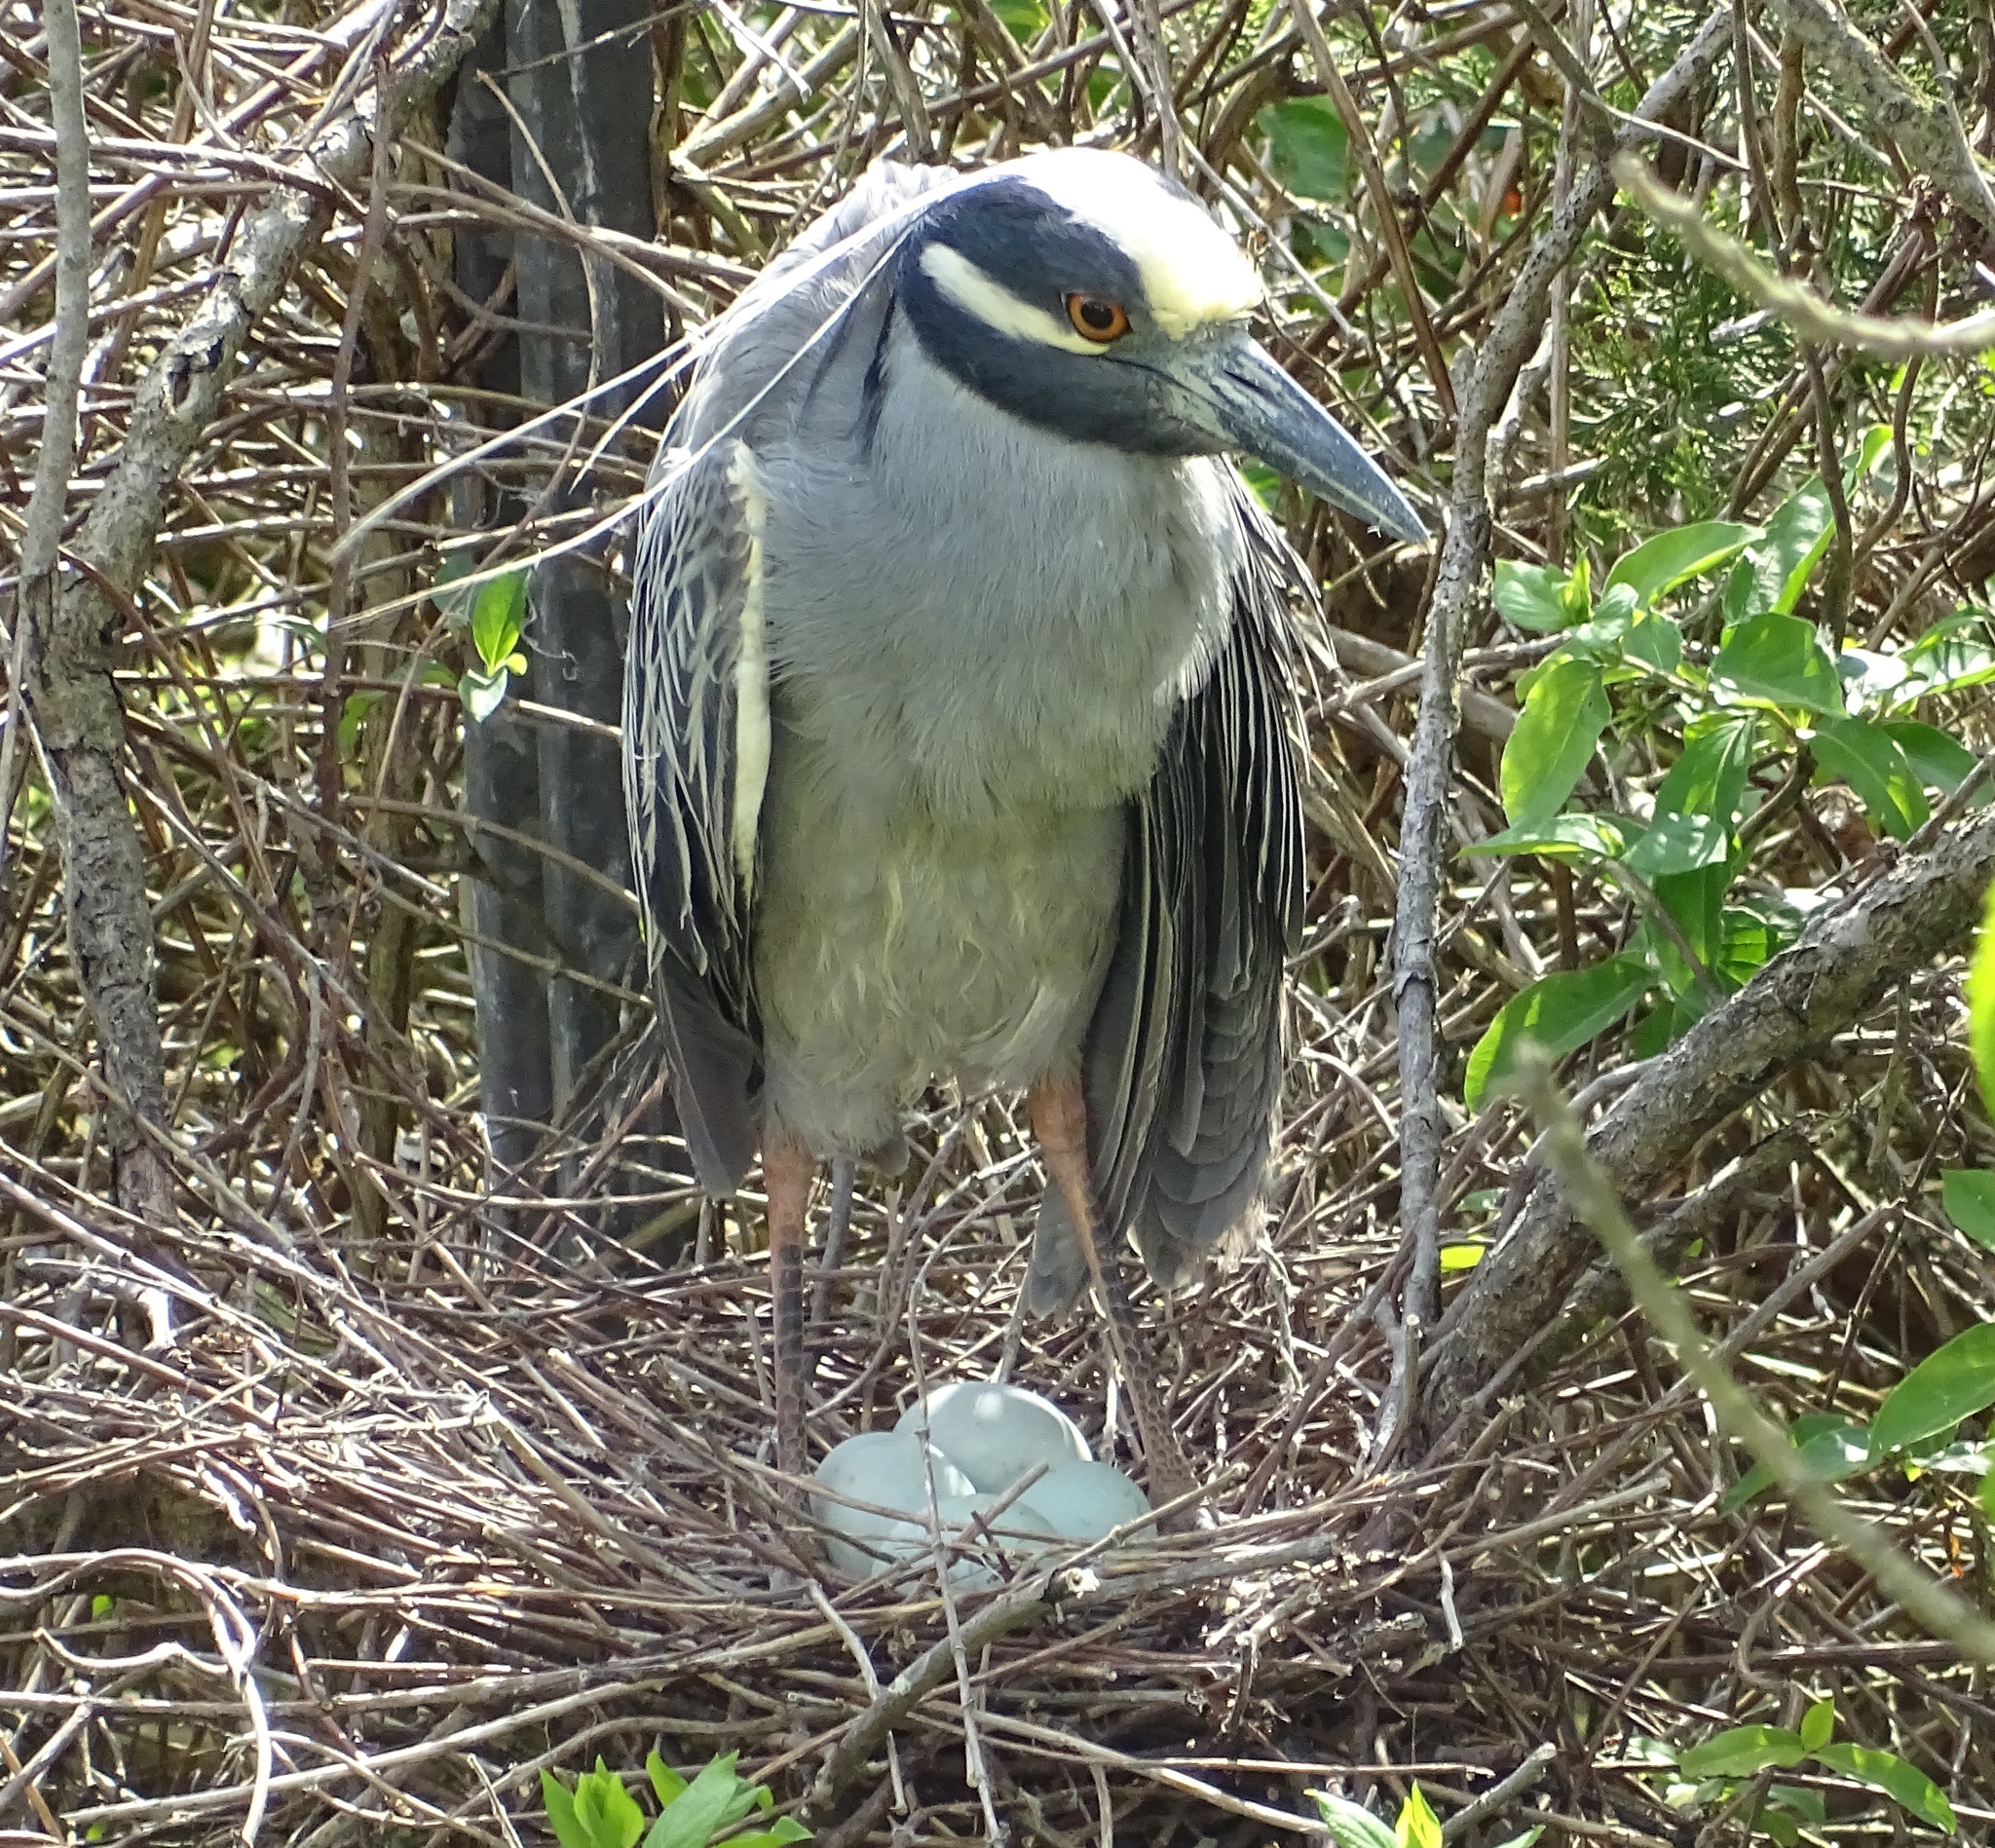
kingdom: Animalia
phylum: Chordata
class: Aves
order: Pelecaniformes
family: Ardeidae
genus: Nyctanassa
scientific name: Nyctanassa violacea
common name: Yellow-crowned night heron
